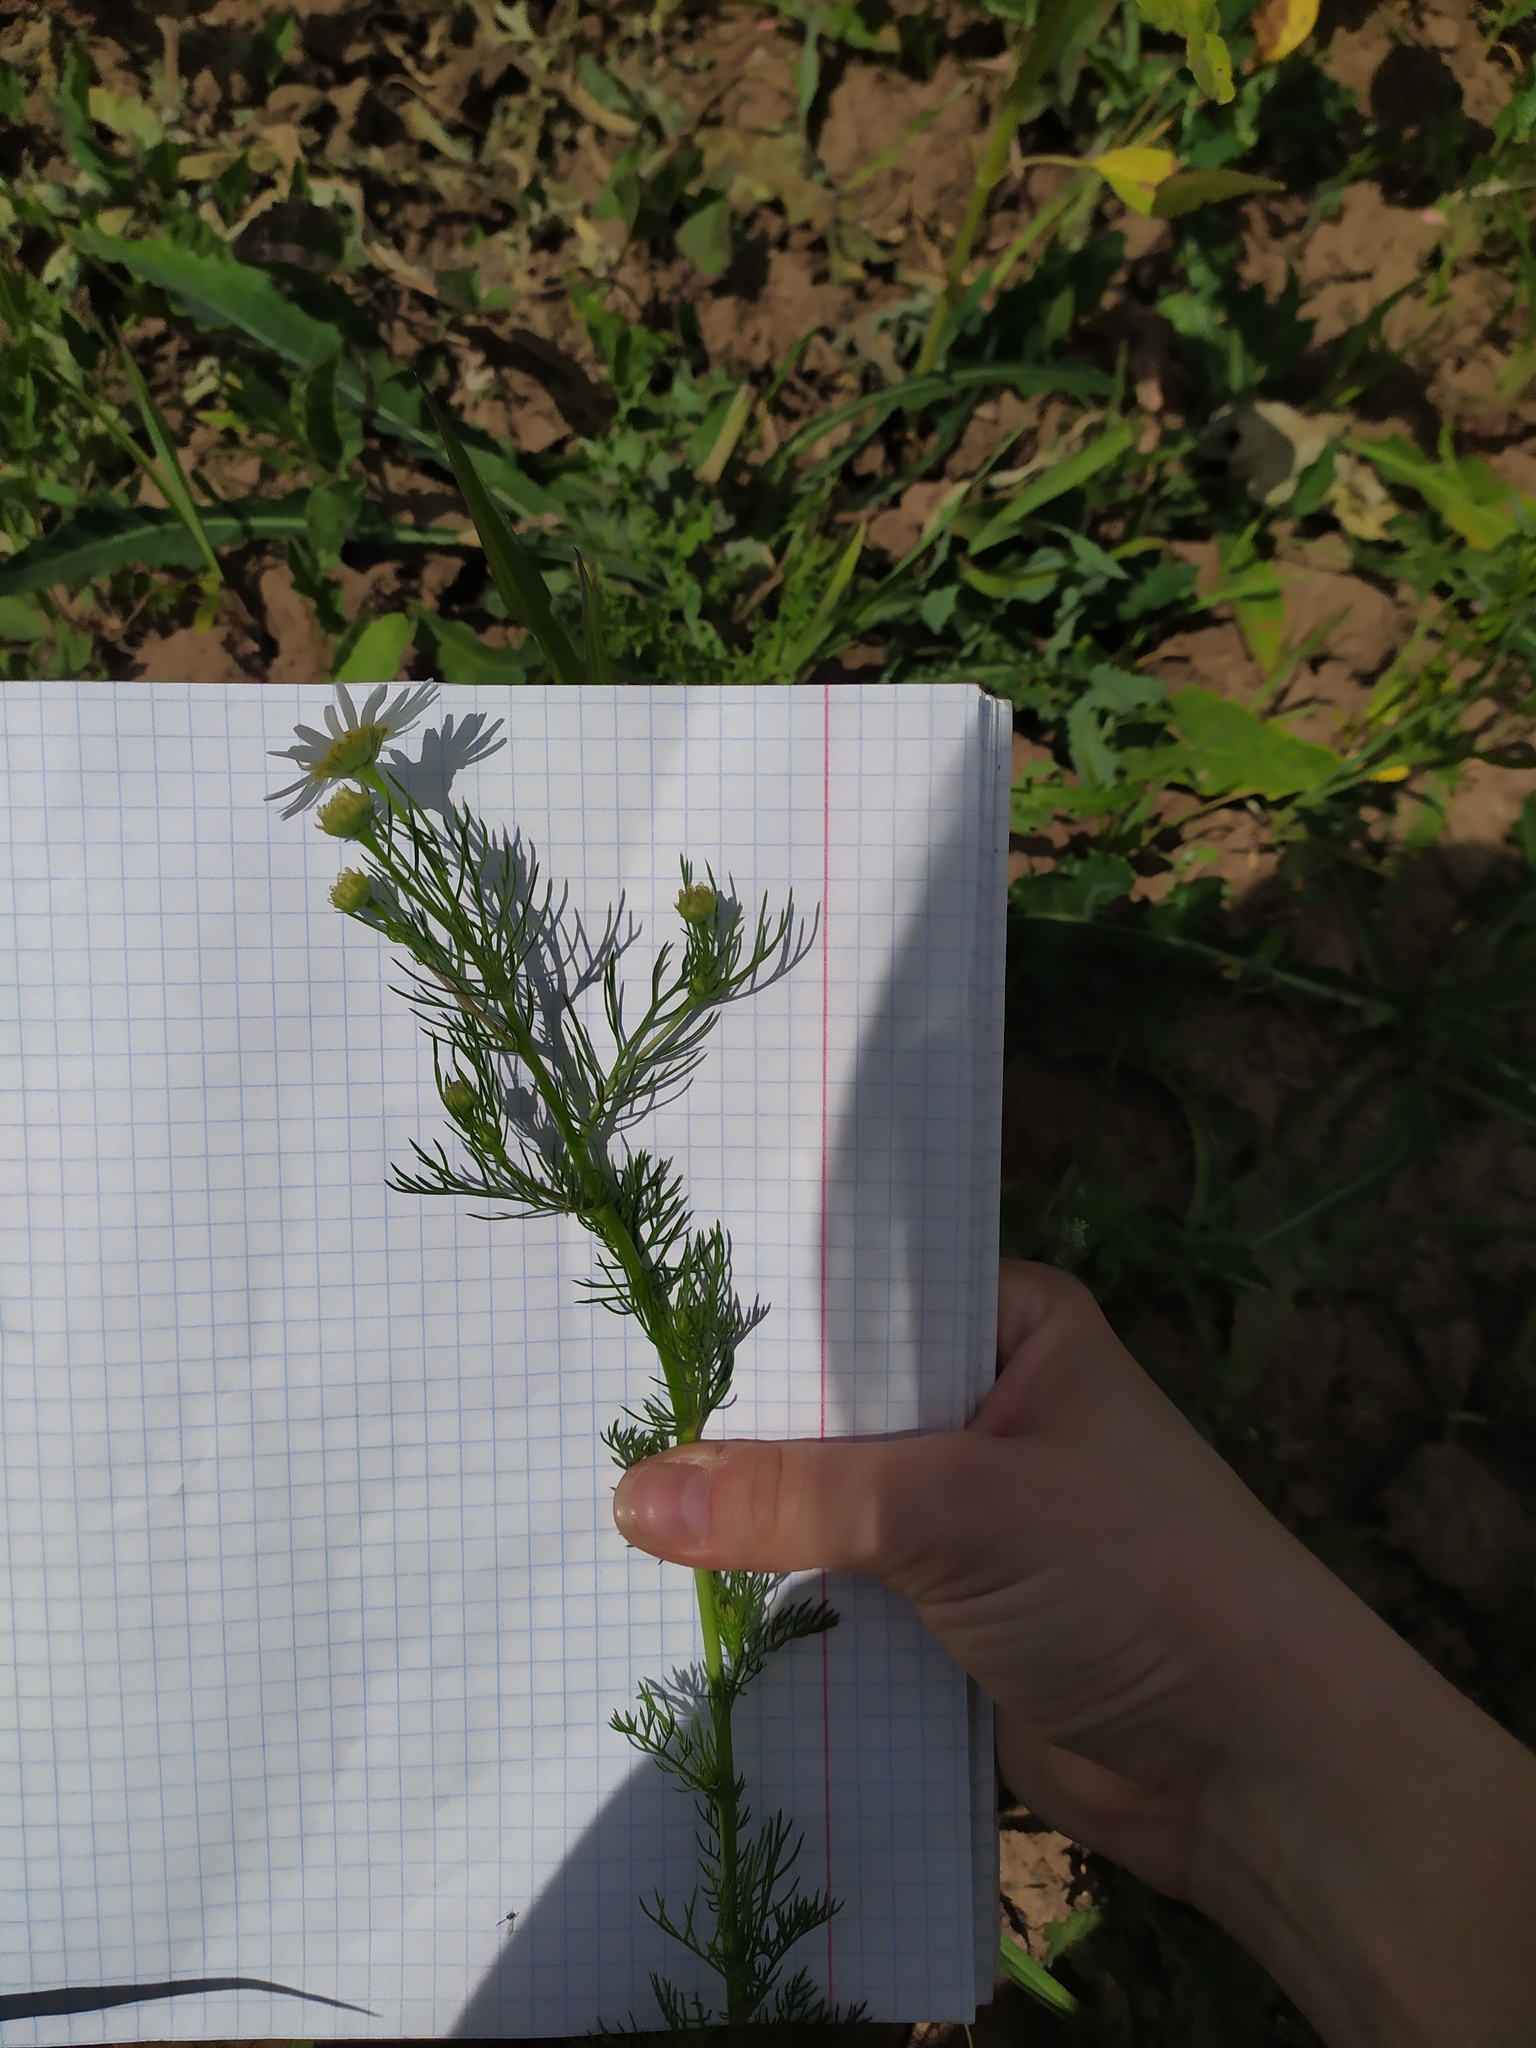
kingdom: Plantae
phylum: Tracheophyta
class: Magnoliopsida
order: Asterales
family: Asteraceae
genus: Tripleurospermum
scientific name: Tripleurospermum inodorum
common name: Scentless mayweed
